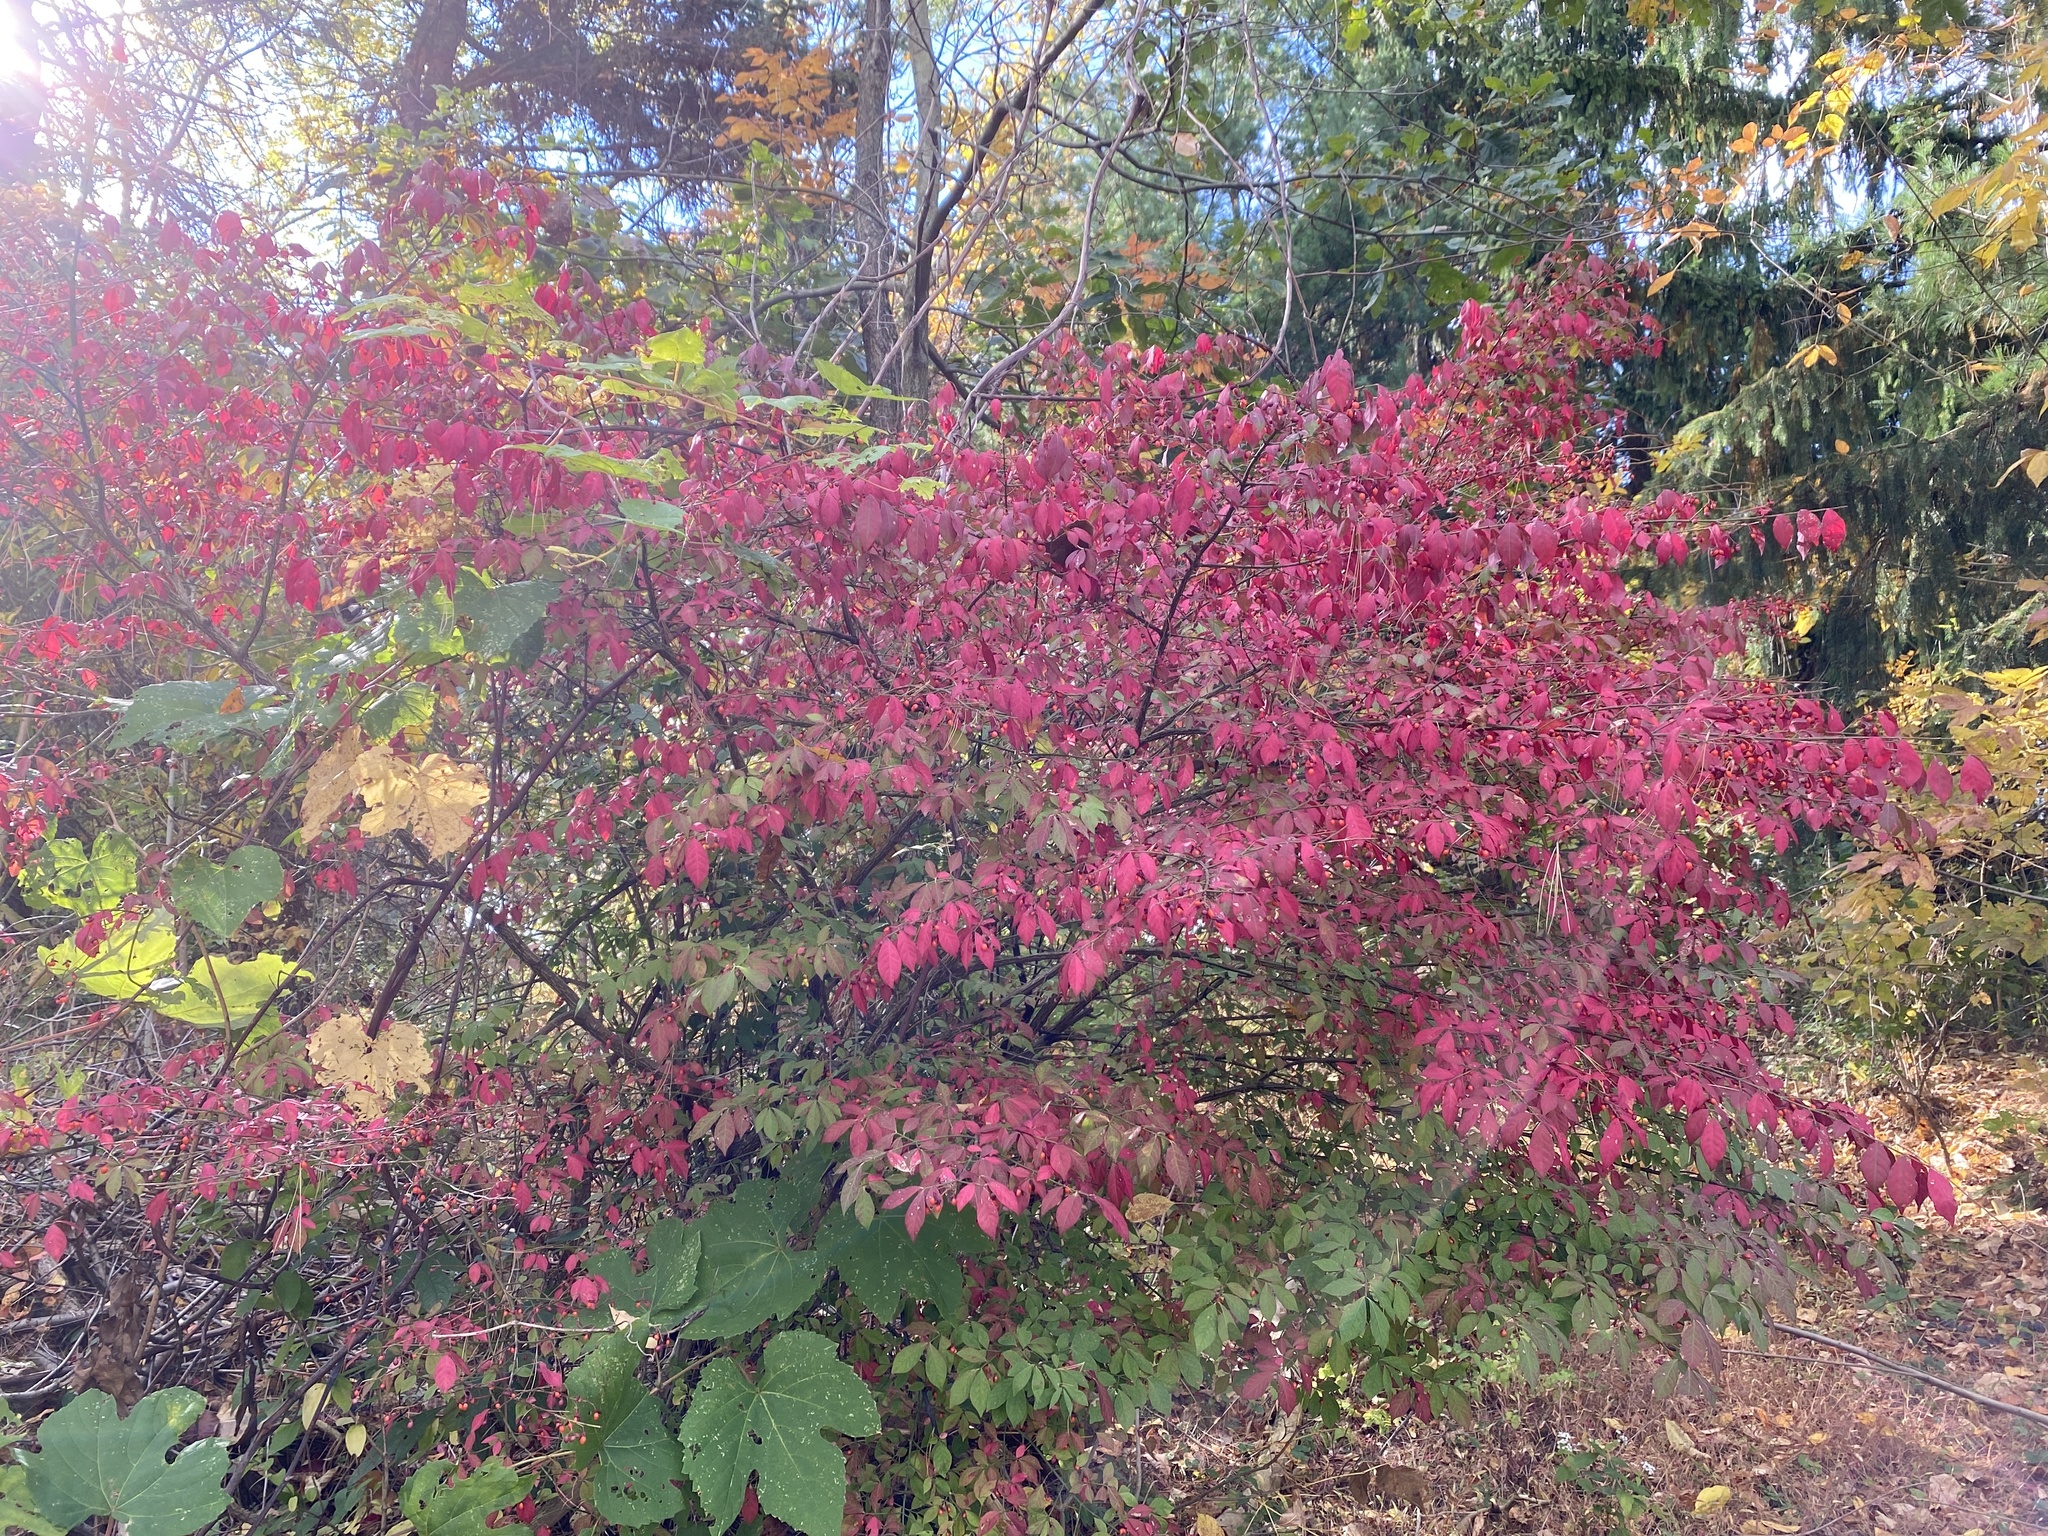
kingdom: Plantae
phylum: Tracheophyta
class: Magnoliopsida
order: Celastrales
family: Celastraceae
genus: Euonymus
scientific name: Euonymus alatus
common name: Winged euonymus
